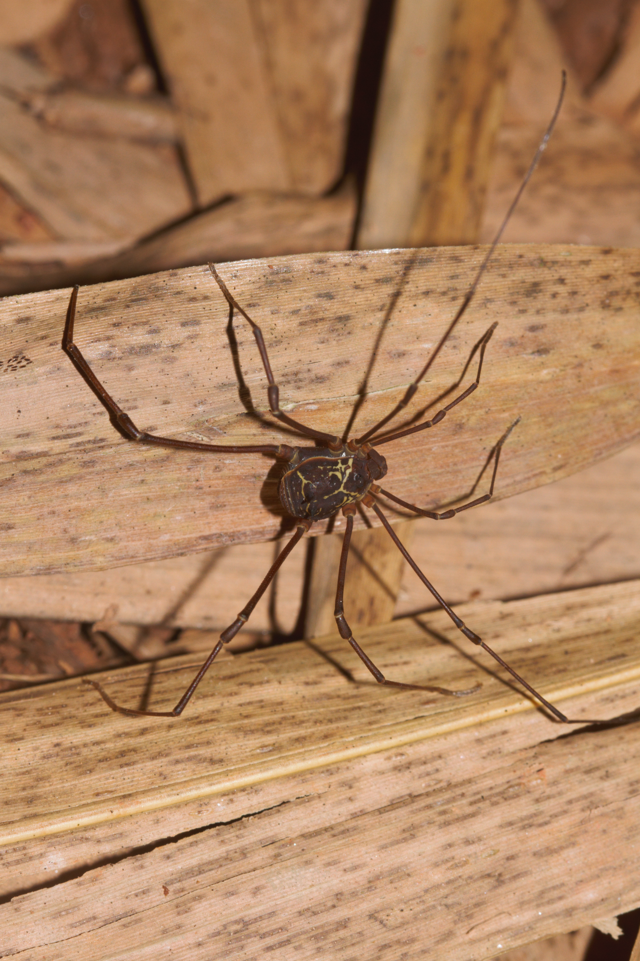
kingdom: Animalia
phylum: Arthropoda
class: Arachnida
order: Opiliones
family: Cosmetidae
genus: Paecilaema
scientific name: Paecilaema curvipes
